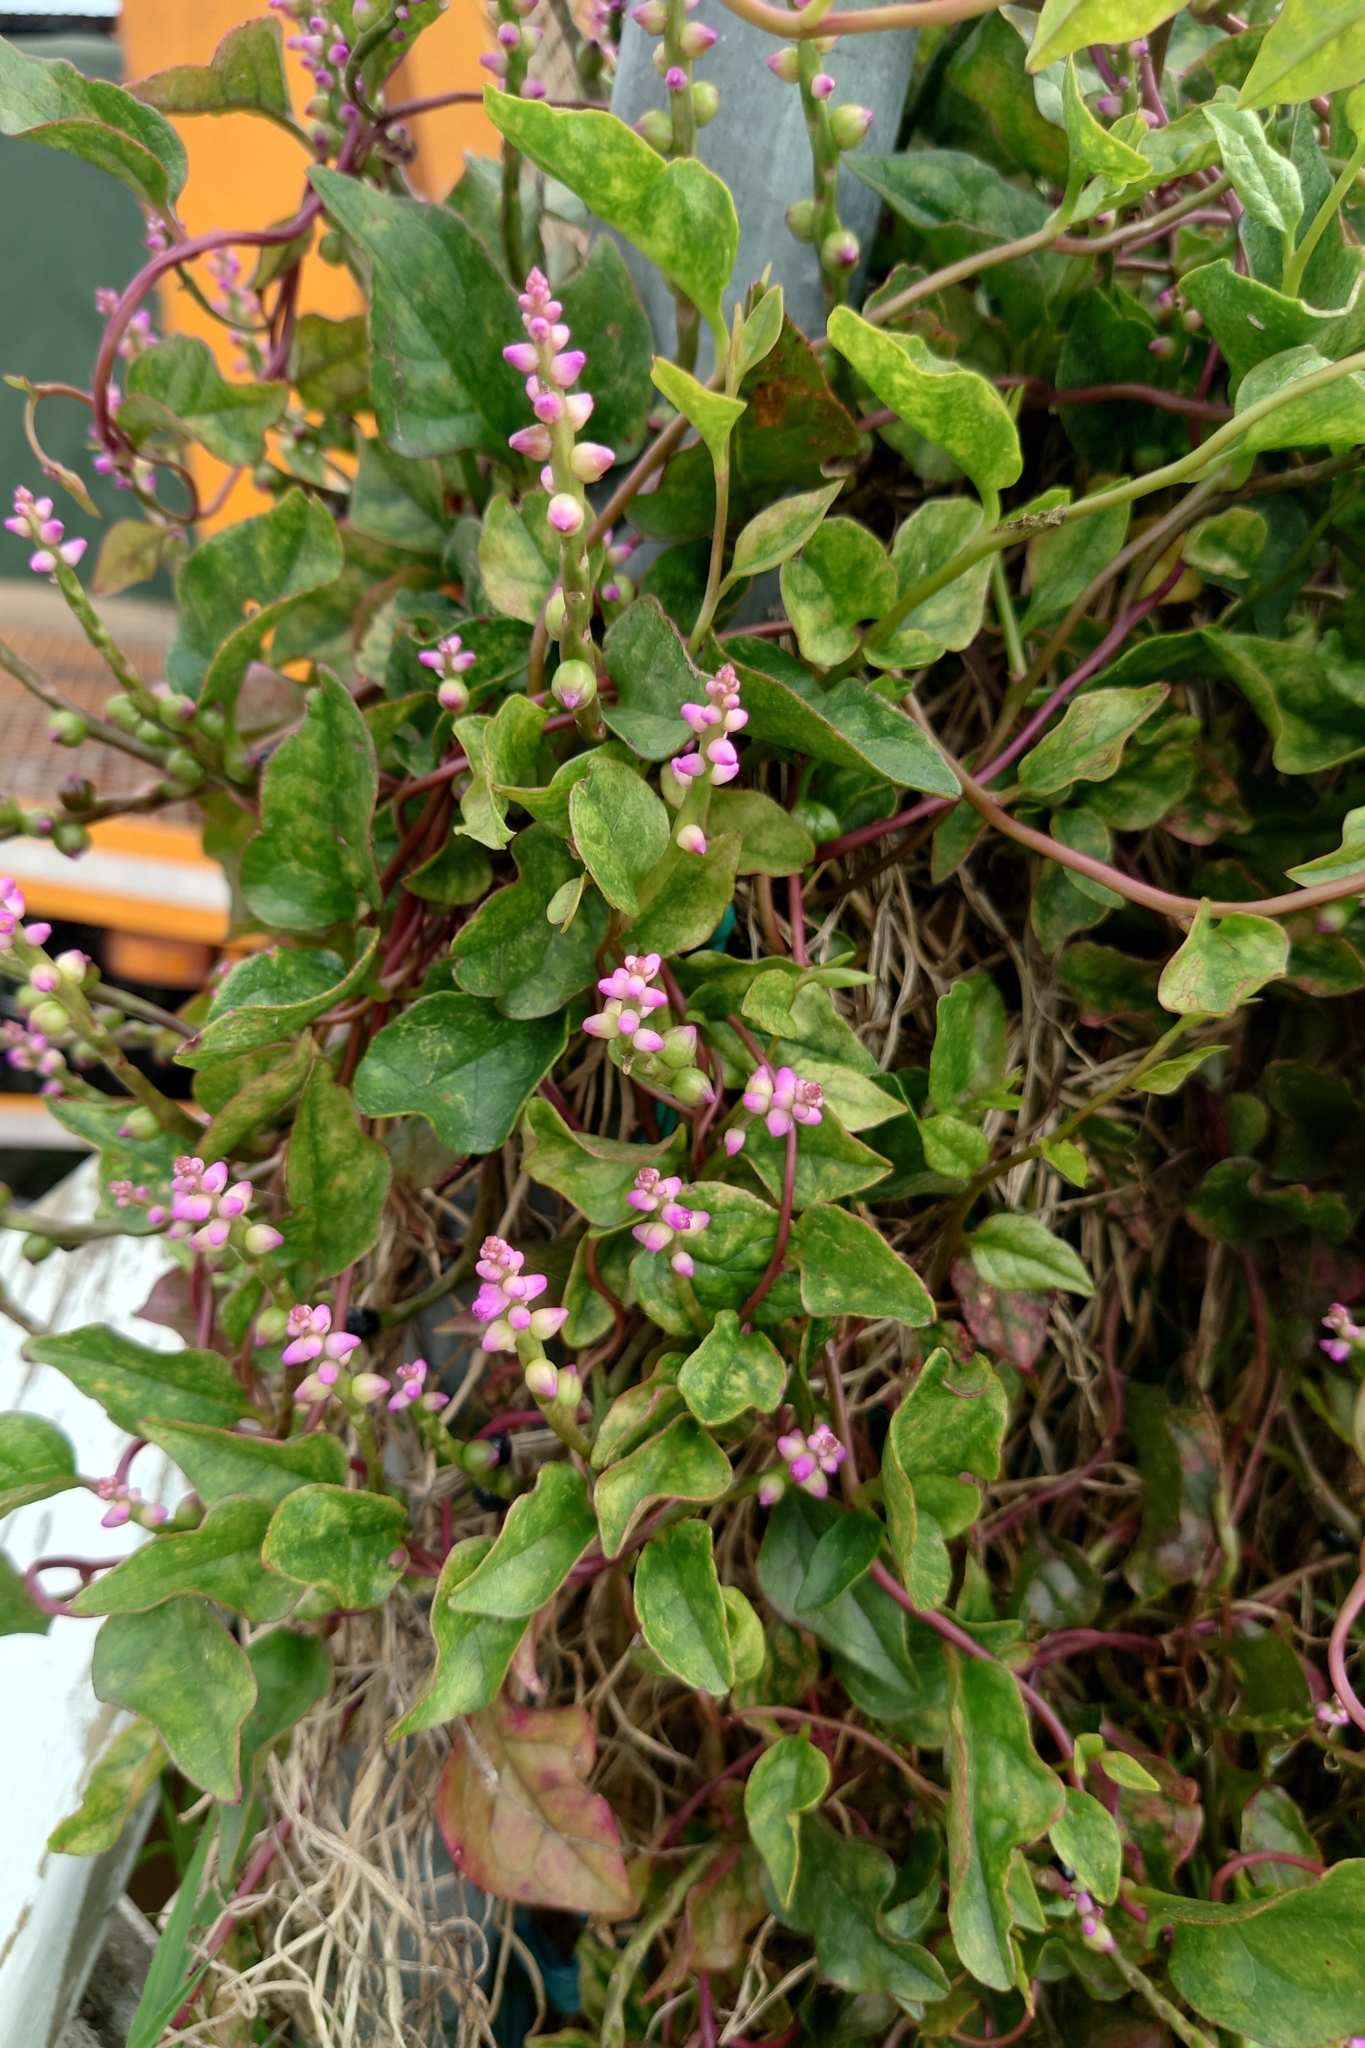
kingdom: Plantae
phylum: Tracheophyta
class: Magnoliopsida
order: Caryophyllales
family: Basellaceae
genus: Basella
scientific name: Basella alba
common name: Indian spinach
